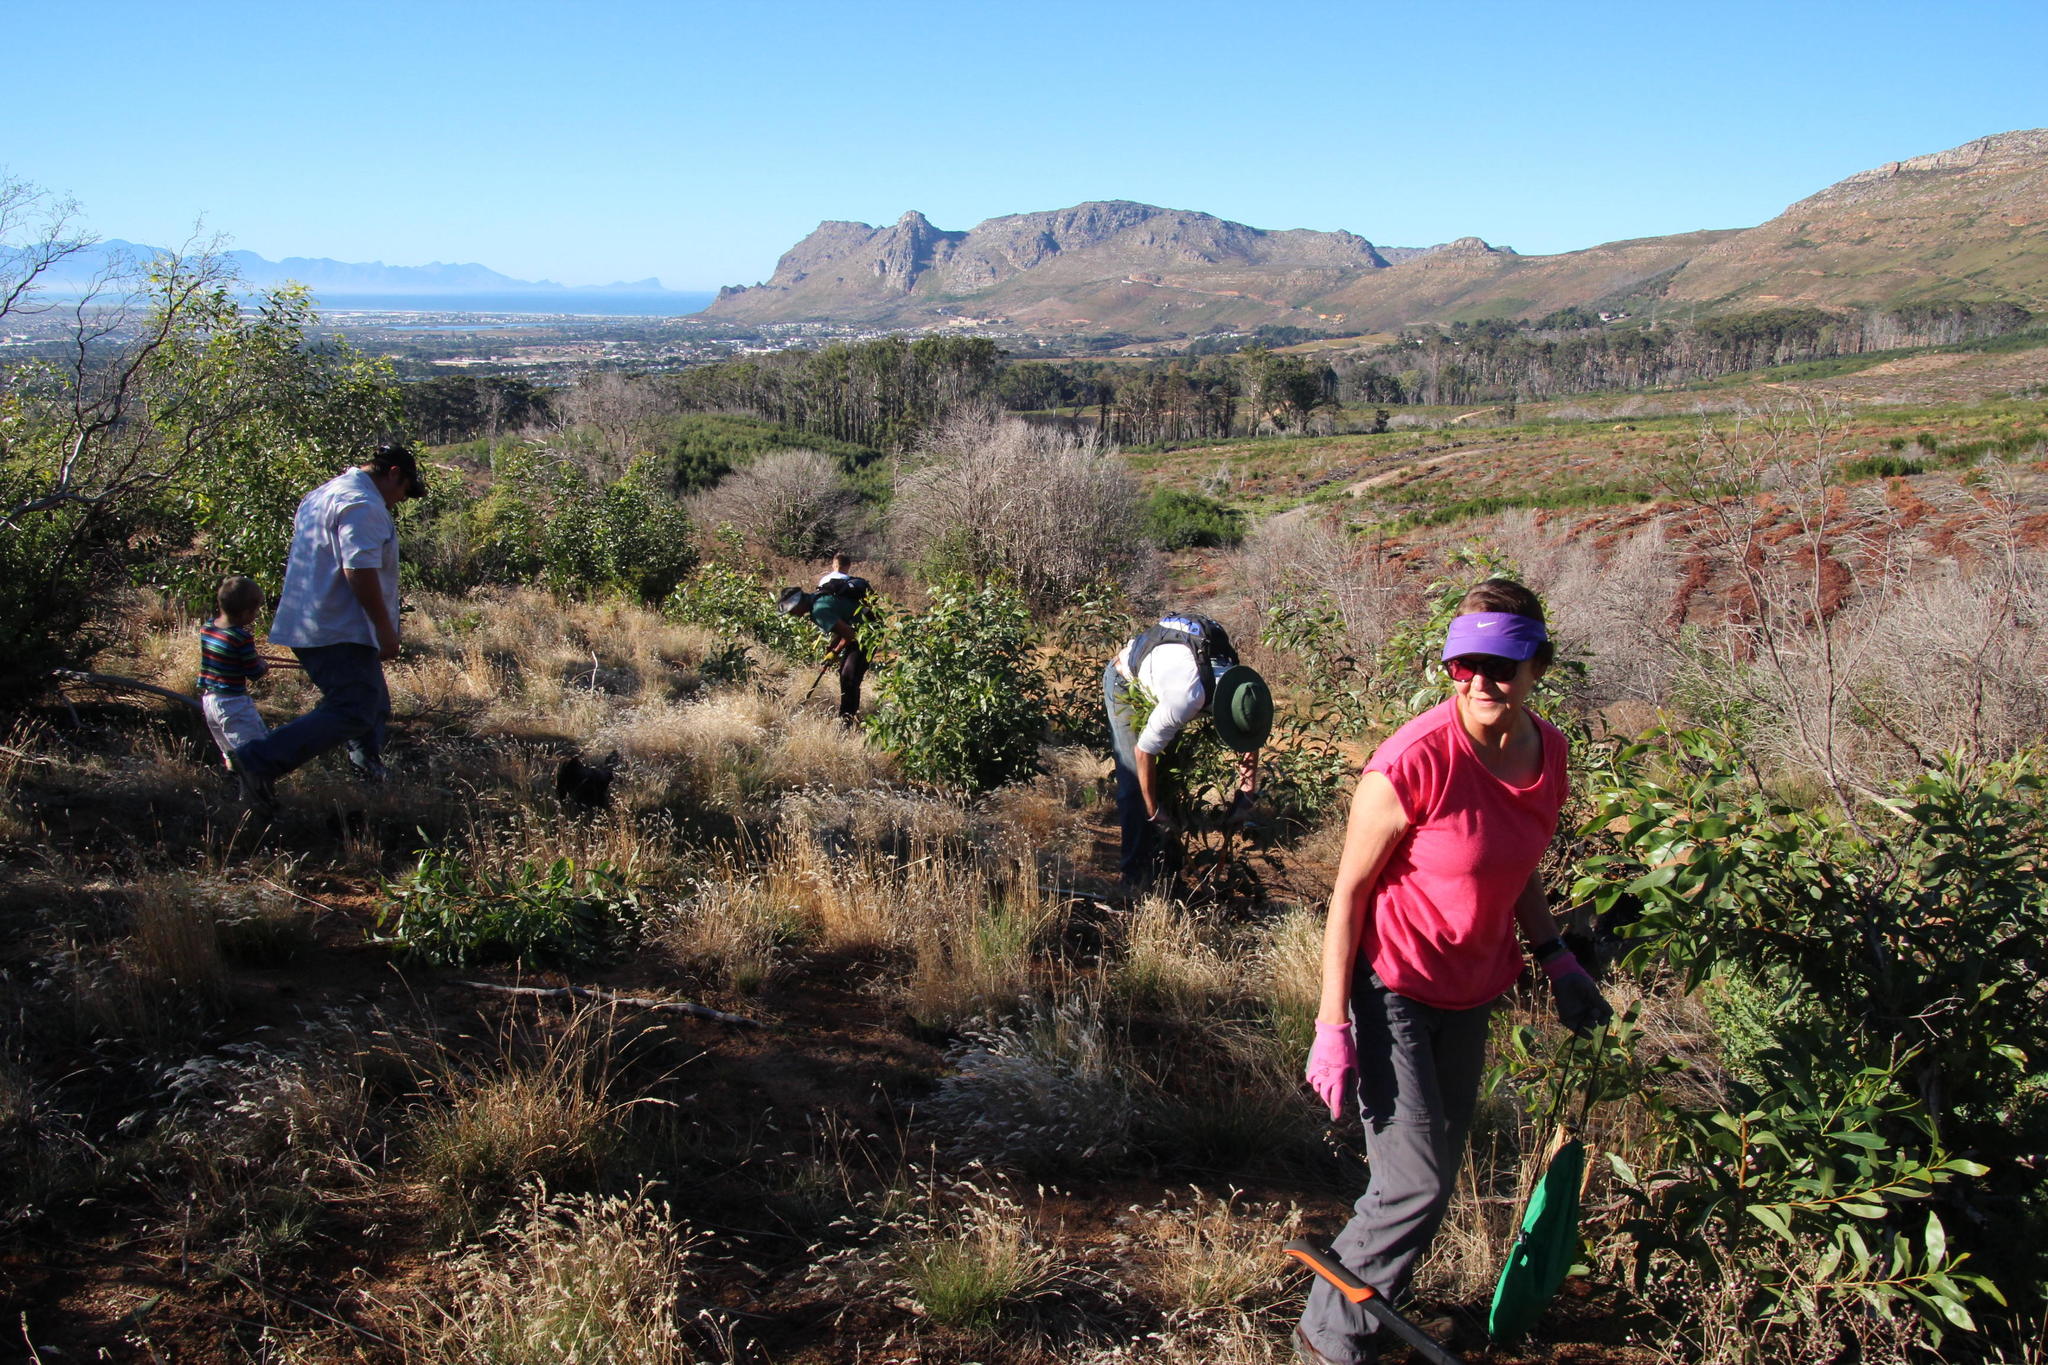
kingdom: Plantae
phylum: Tracheophyta
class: Magnoliopsida
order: Fabales
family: Fabaceae
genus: Acacia
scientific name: Acacia pycnantha
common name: Golden wattle
